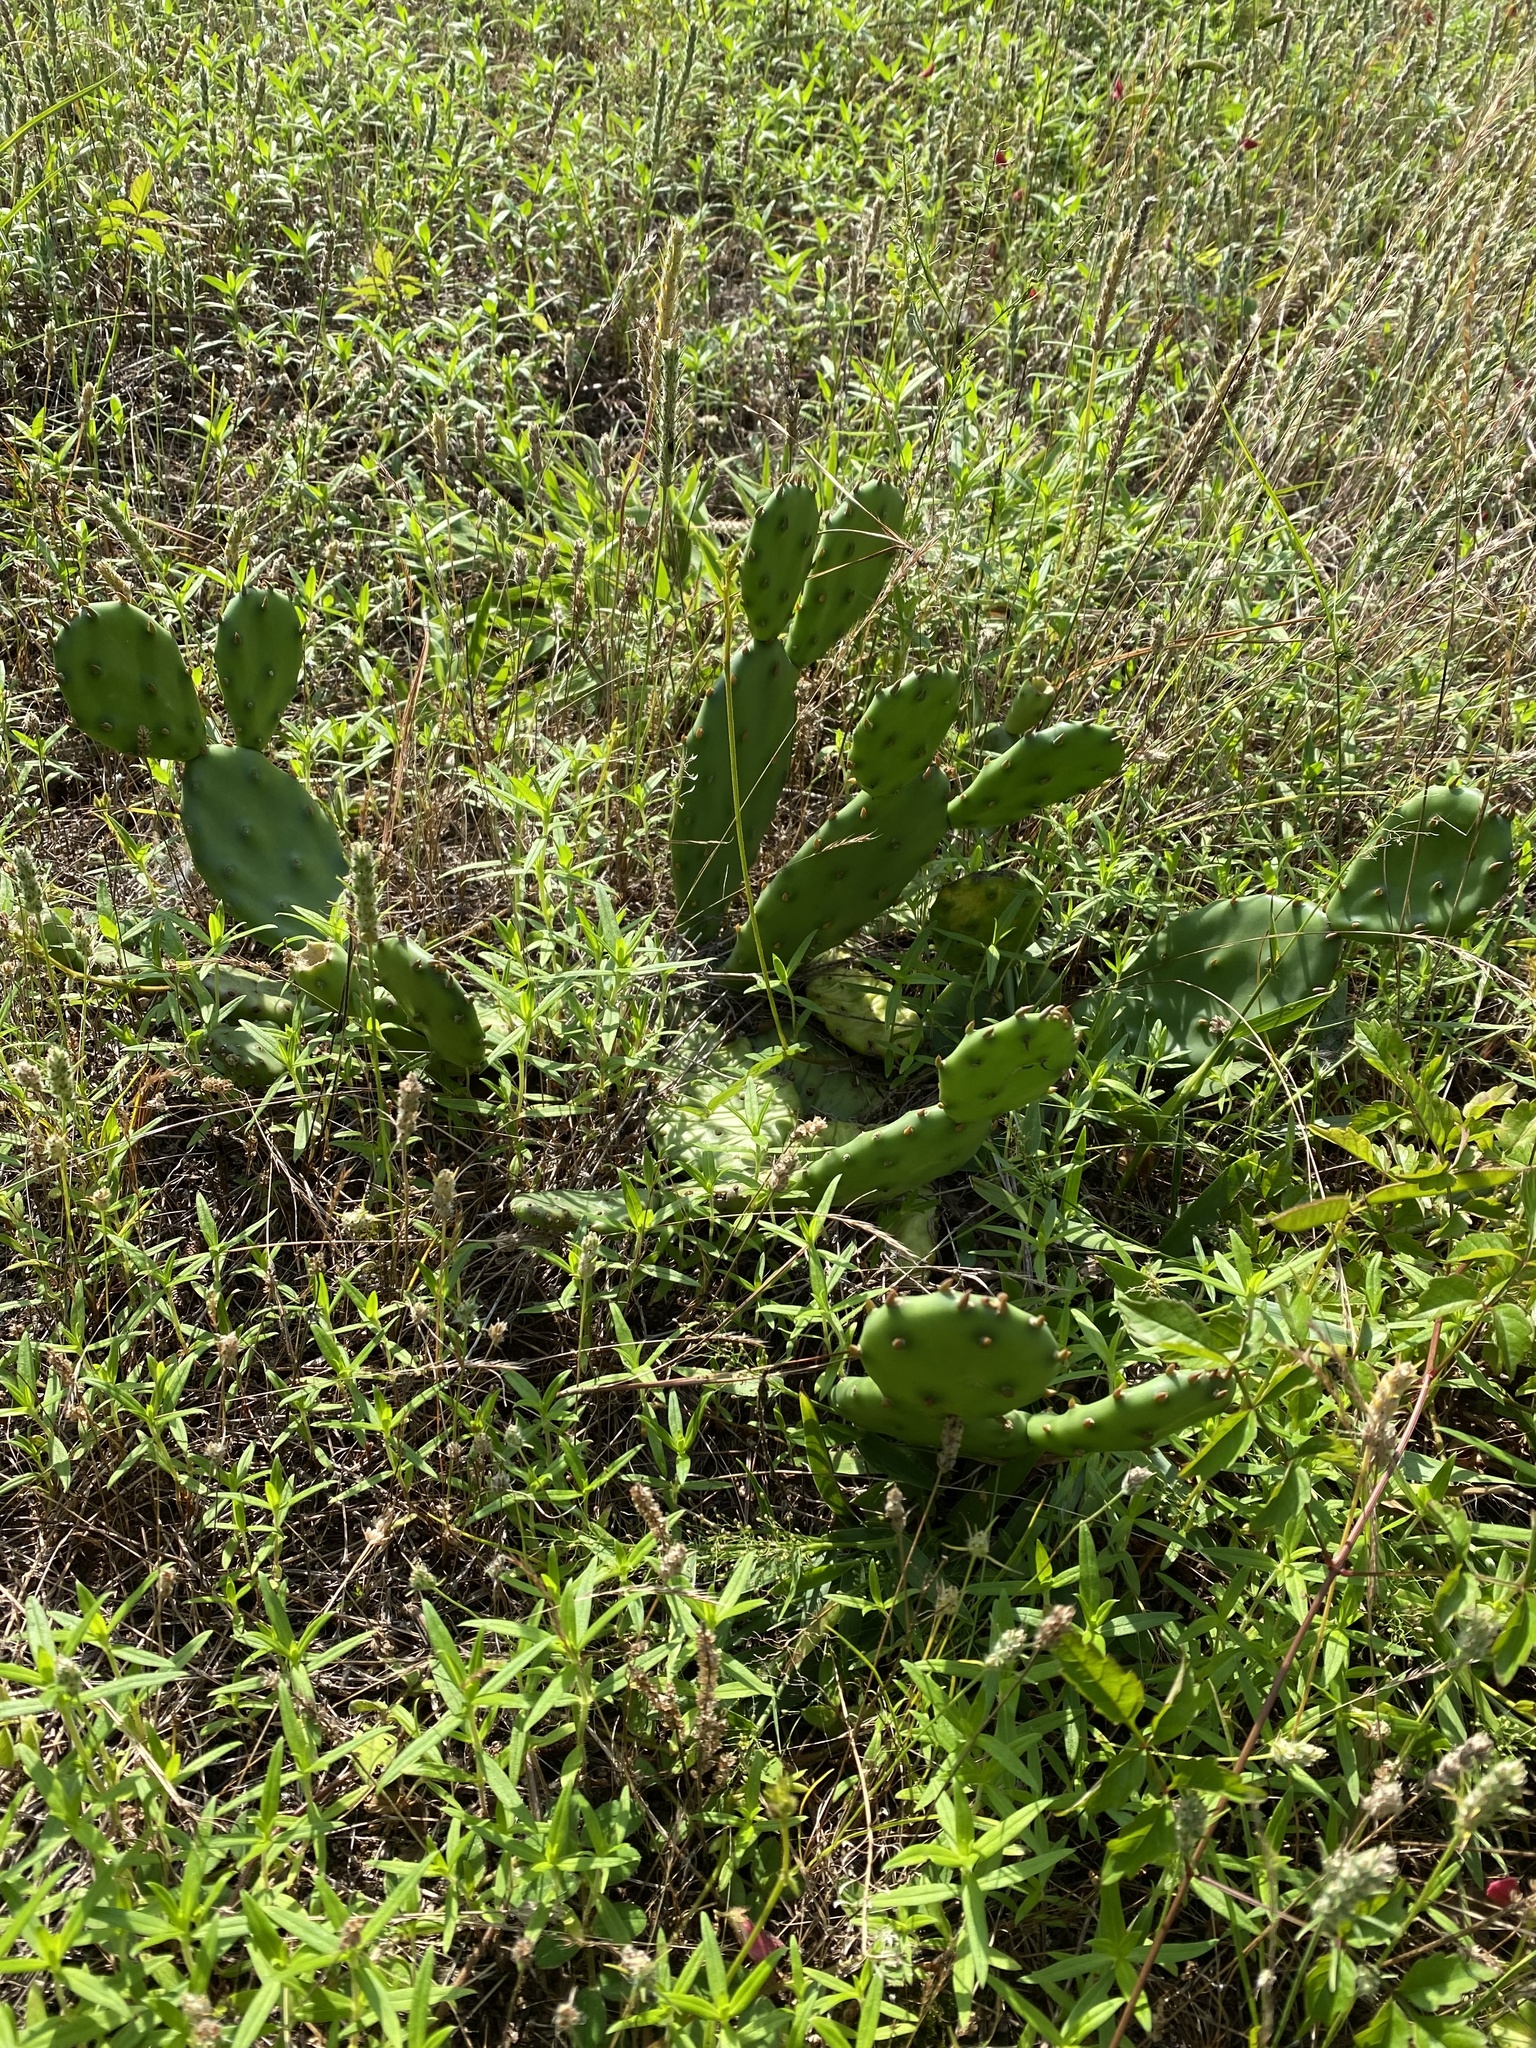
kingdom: Plantae
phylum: Tracheophyta
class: Magnoliopsida
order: Caryophyllales
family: Cactaceae
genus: Opuntia
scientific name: Opuntia humifusa
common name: Eastern prickly-pear
